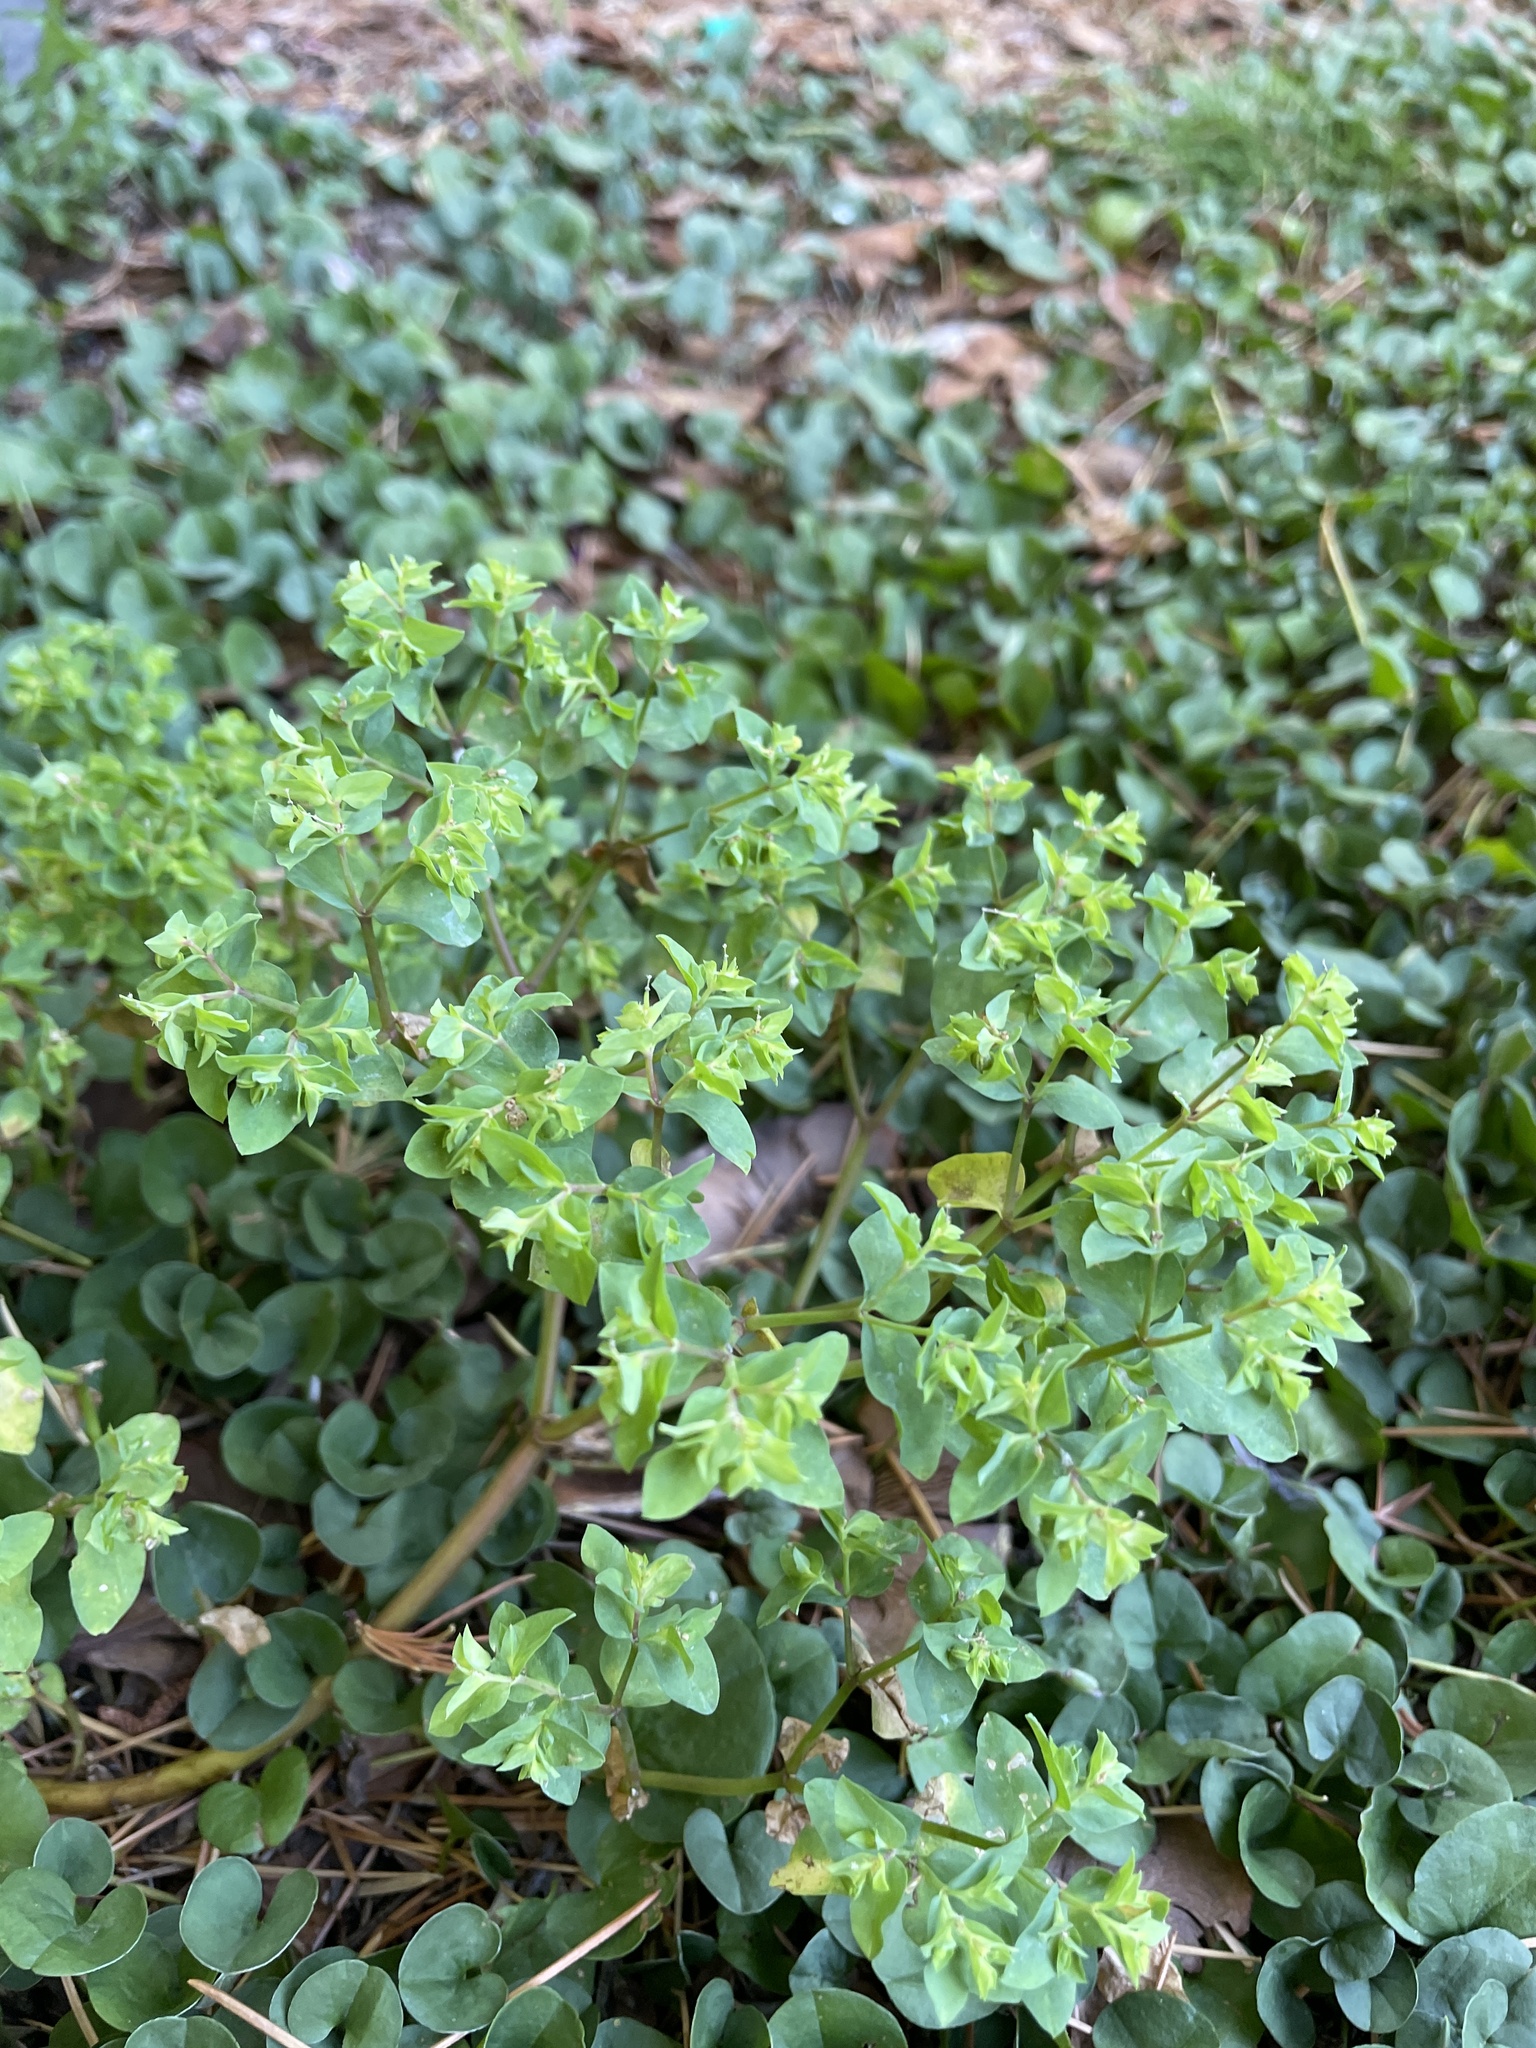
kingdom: Plantae
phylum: Tracheophyta
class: Magnoliopsida
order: Malpighiales
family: Euphorbiaceae
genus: Euphorbia
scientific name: Euphorbia peplus
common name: Petty spurge
